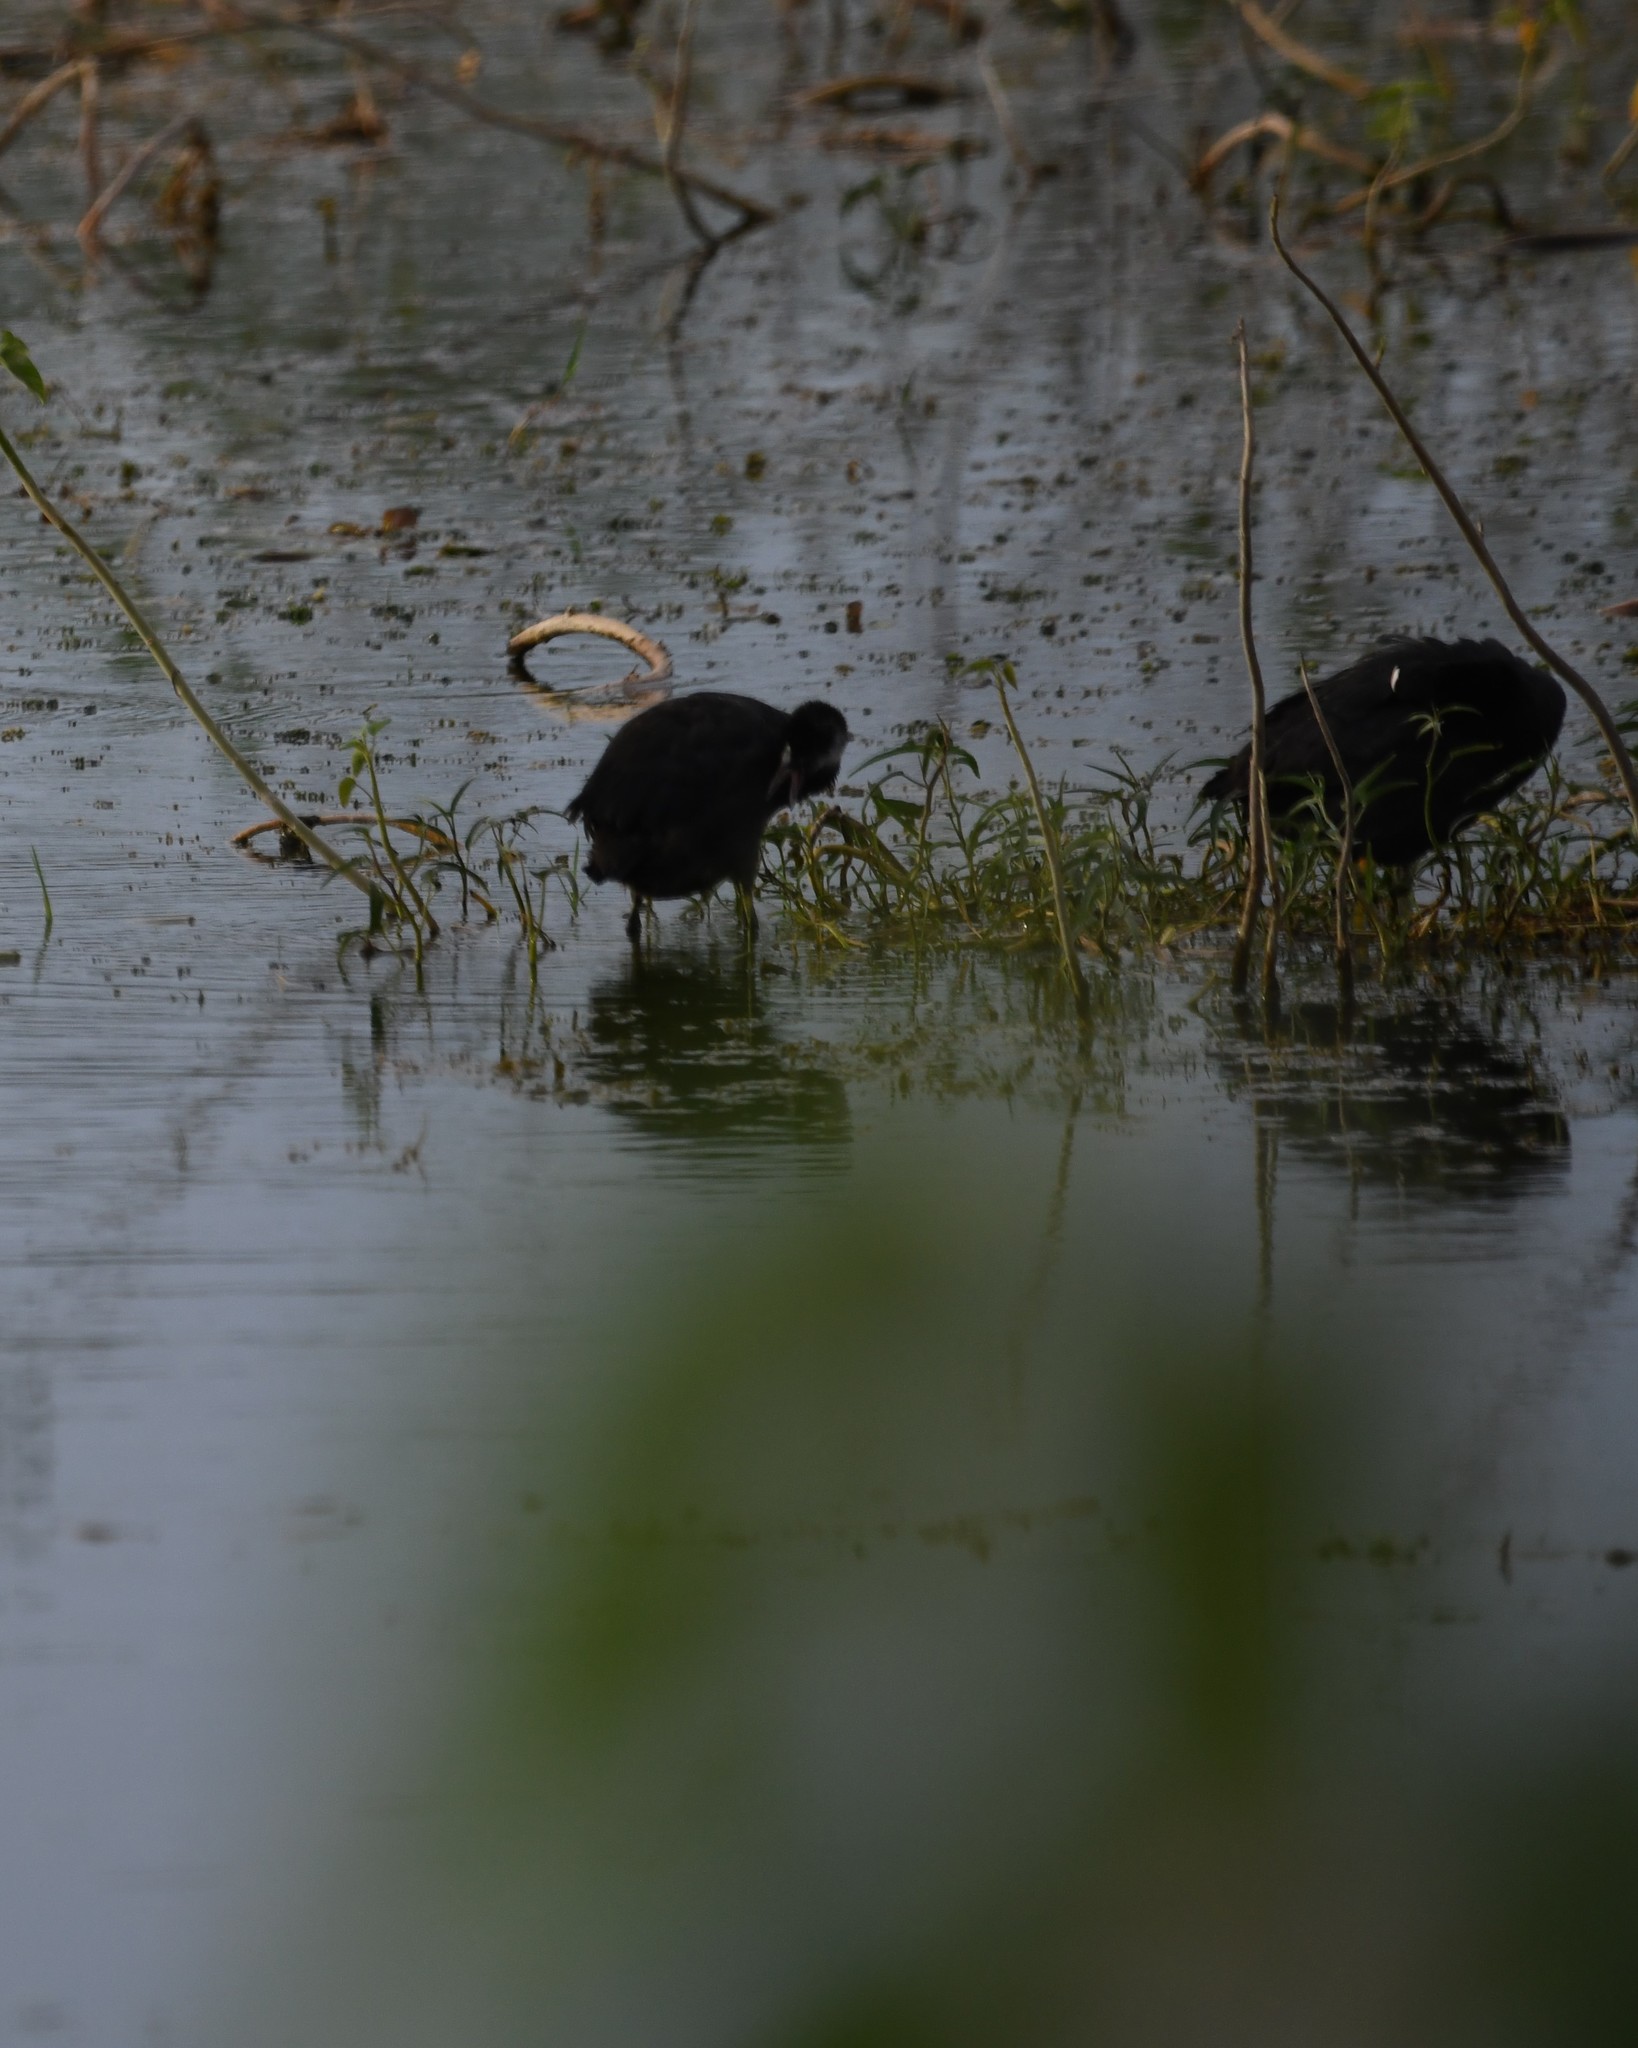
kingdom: Animalia
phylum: Chordata
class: Aves
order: Gruiformes
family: Rallidae
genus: Fulica
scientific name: Fulica atra
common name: Eurasian coot
